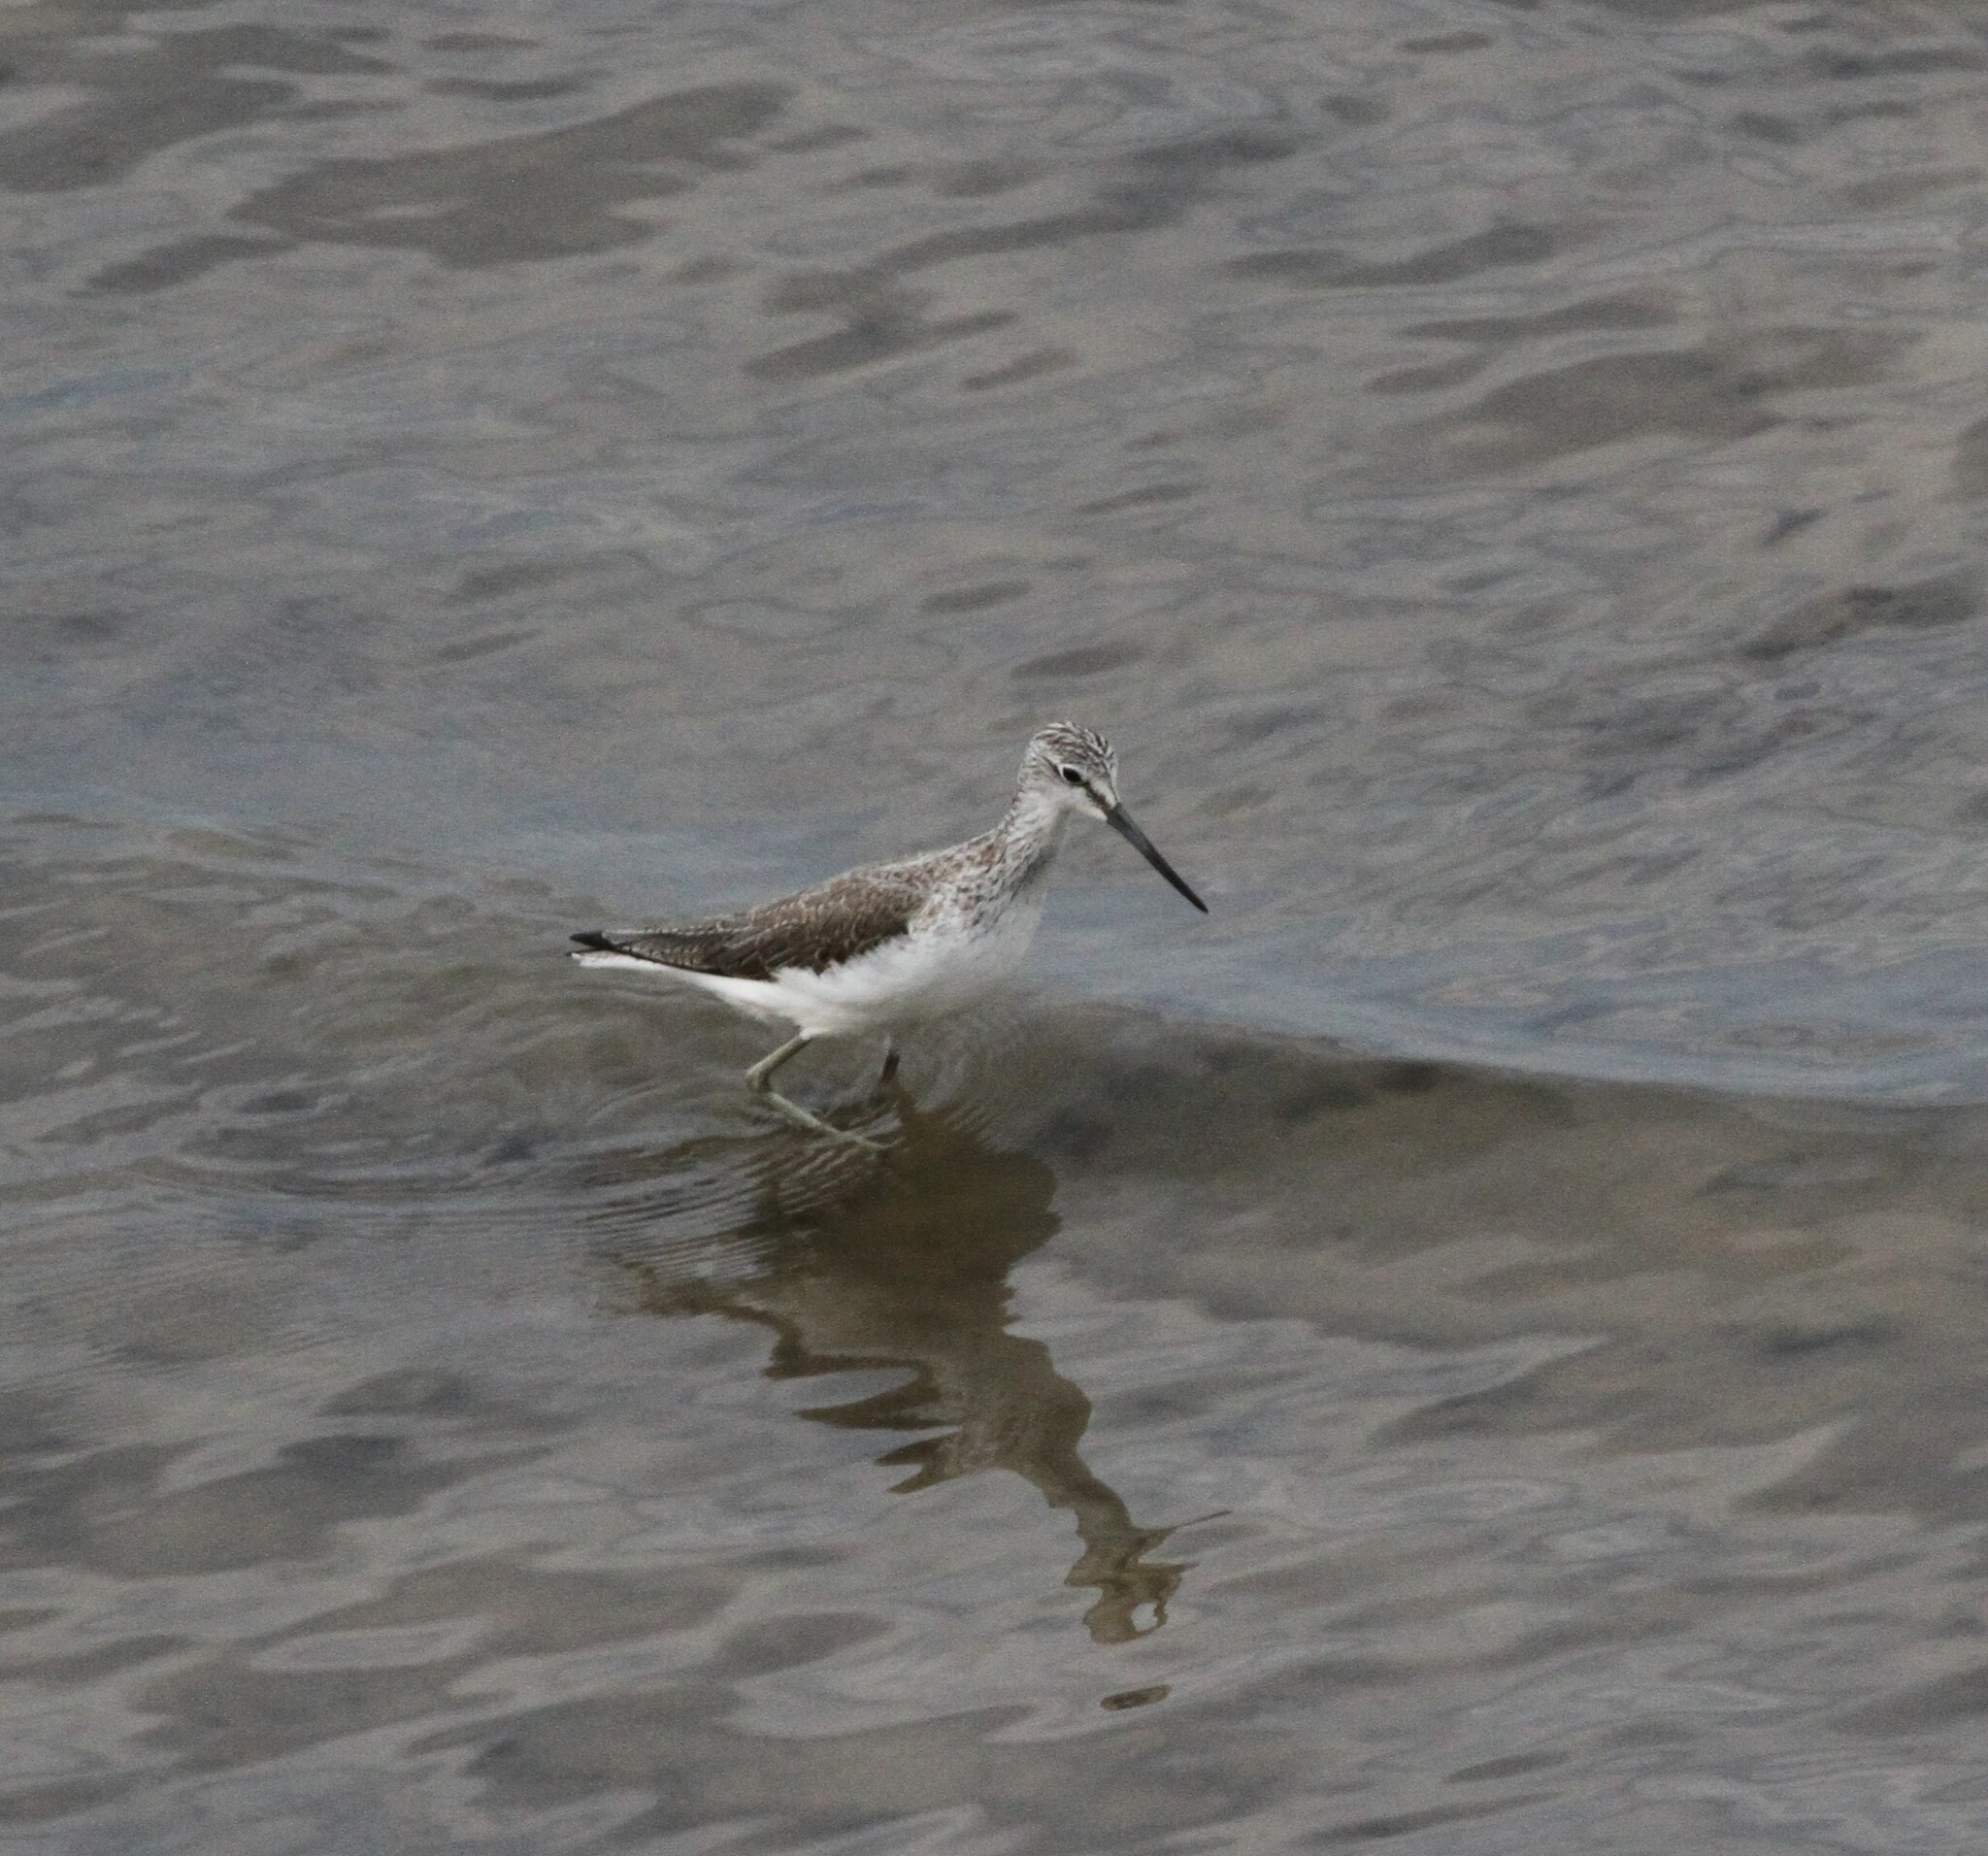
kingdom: Animalia
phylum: Chordata
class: Aves
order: Charadriiformes
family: Scolopacidae
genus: Tringa
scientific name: Tringa nebularia
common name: Common greenshank
